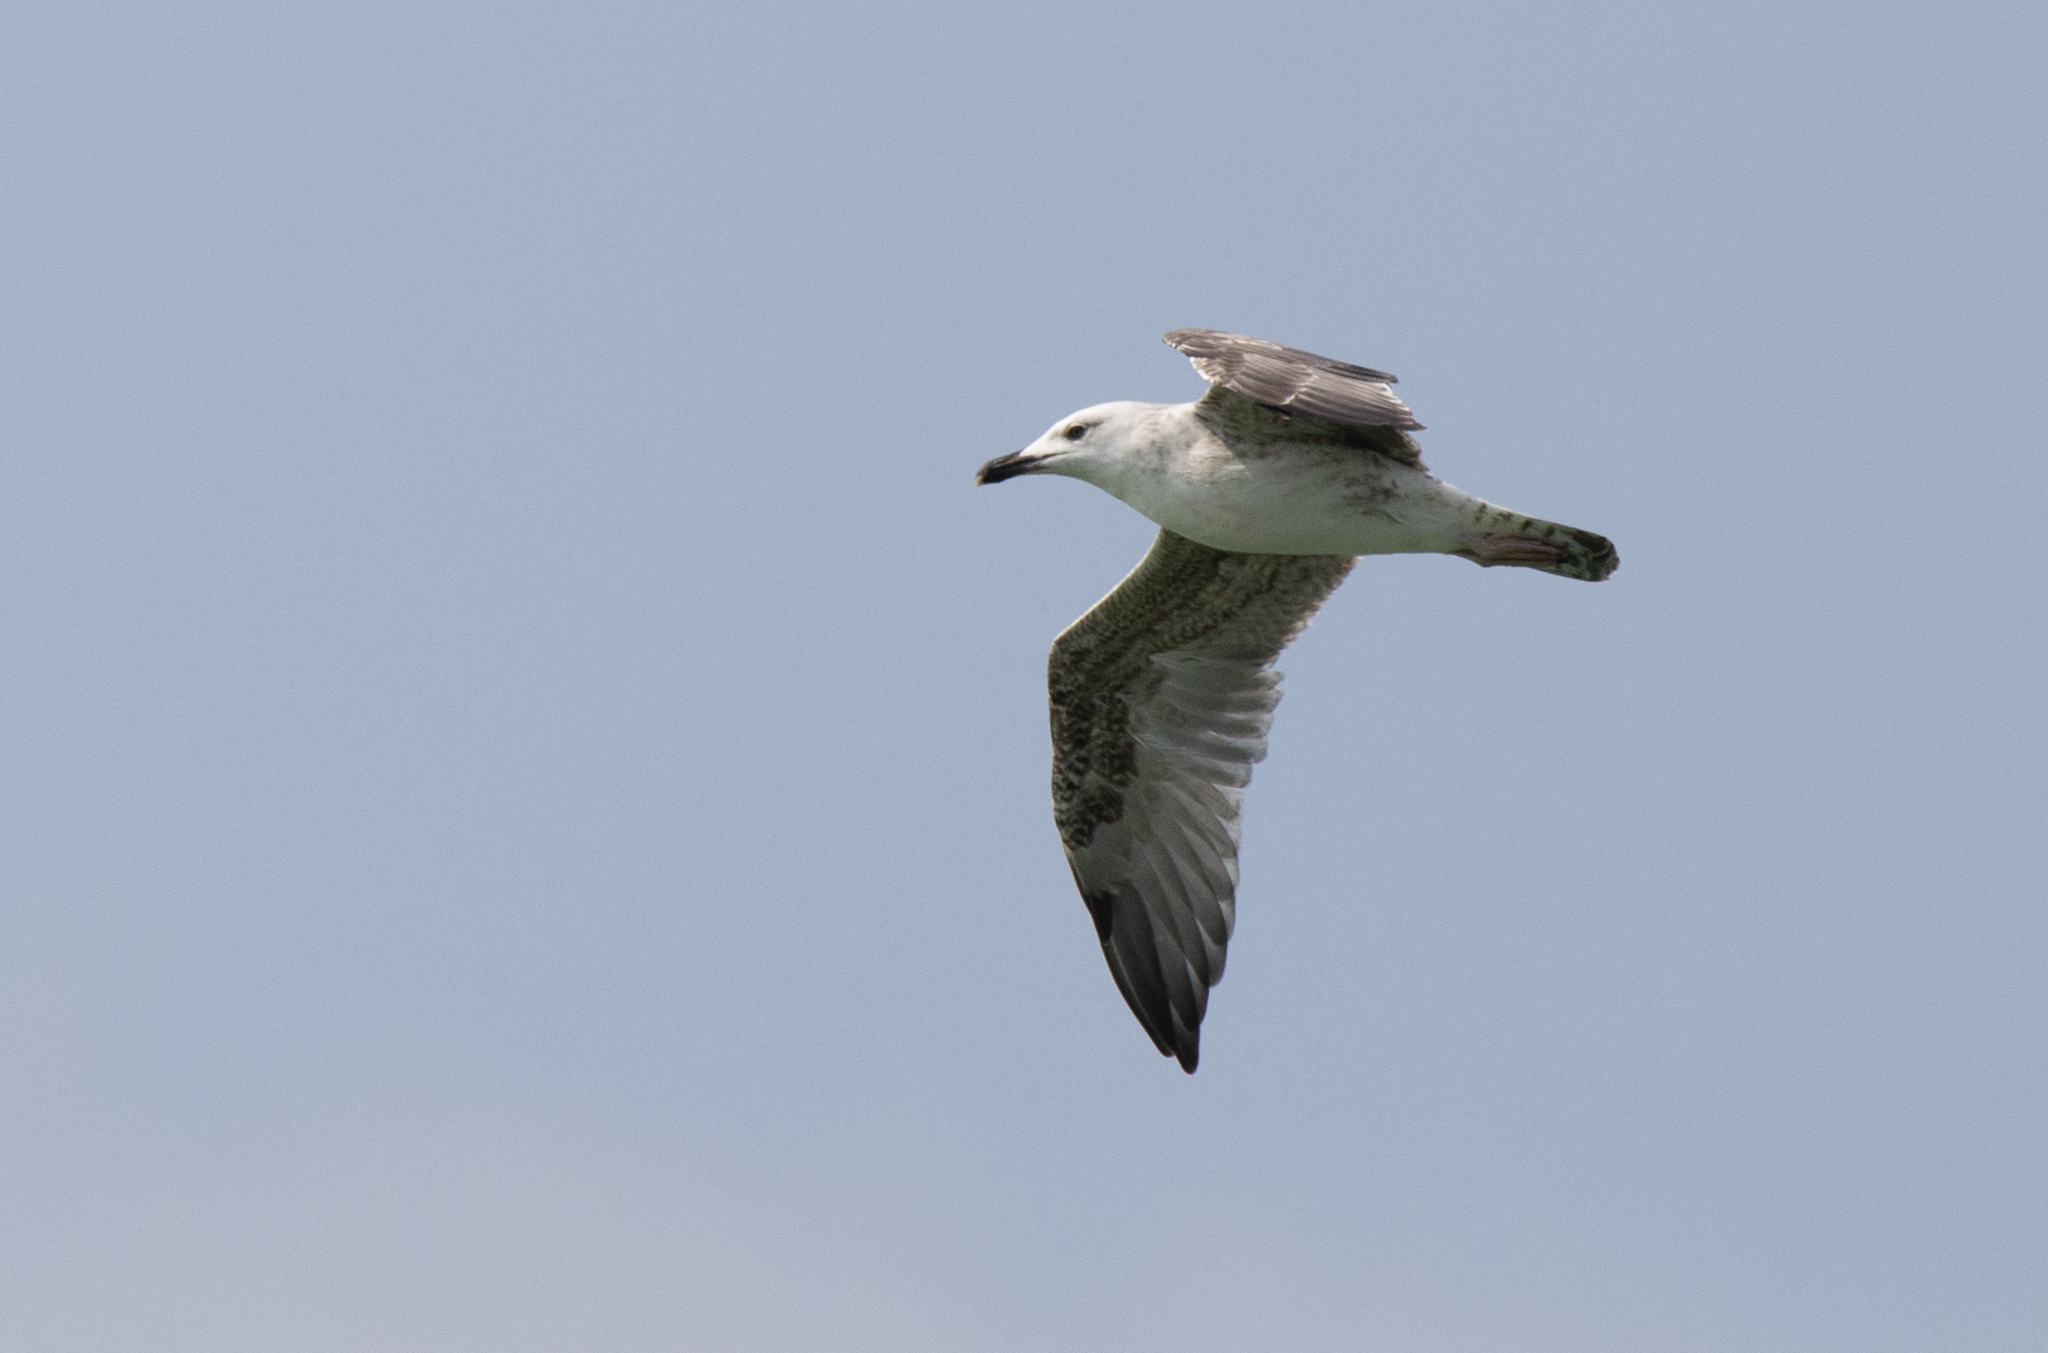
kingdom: Animalia
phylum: Chordata
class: Aves
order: Charadriiformes
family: Laridae
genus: Larus
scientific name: Larus michahellis
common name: Yellow-legged gull
